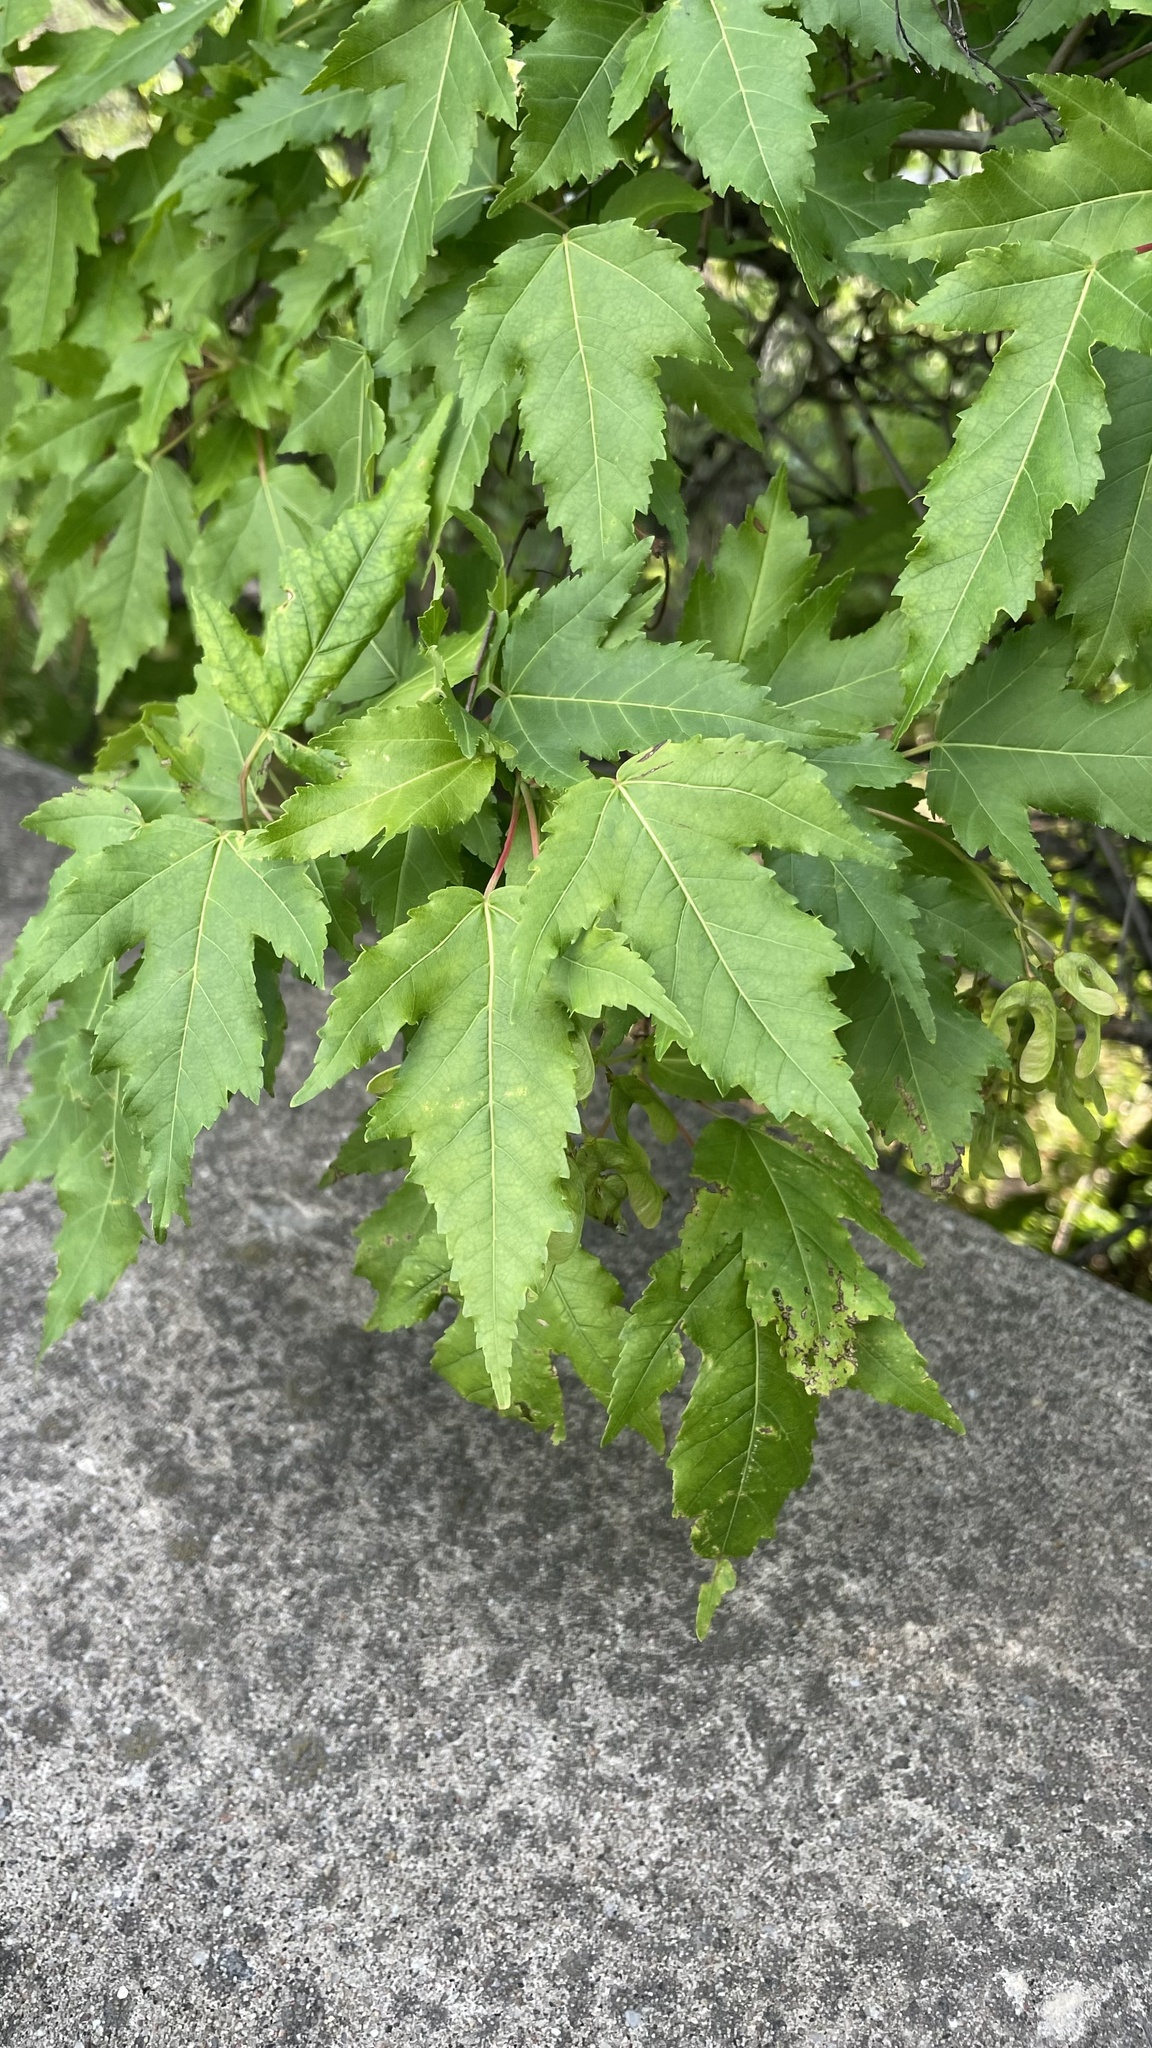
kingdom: Plantae
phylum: Tracheophyta
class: Magnoliopsida
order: Sapindales
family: Sapindaceae
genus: Acer
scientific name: Acer tataricum
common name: Tartar maple
